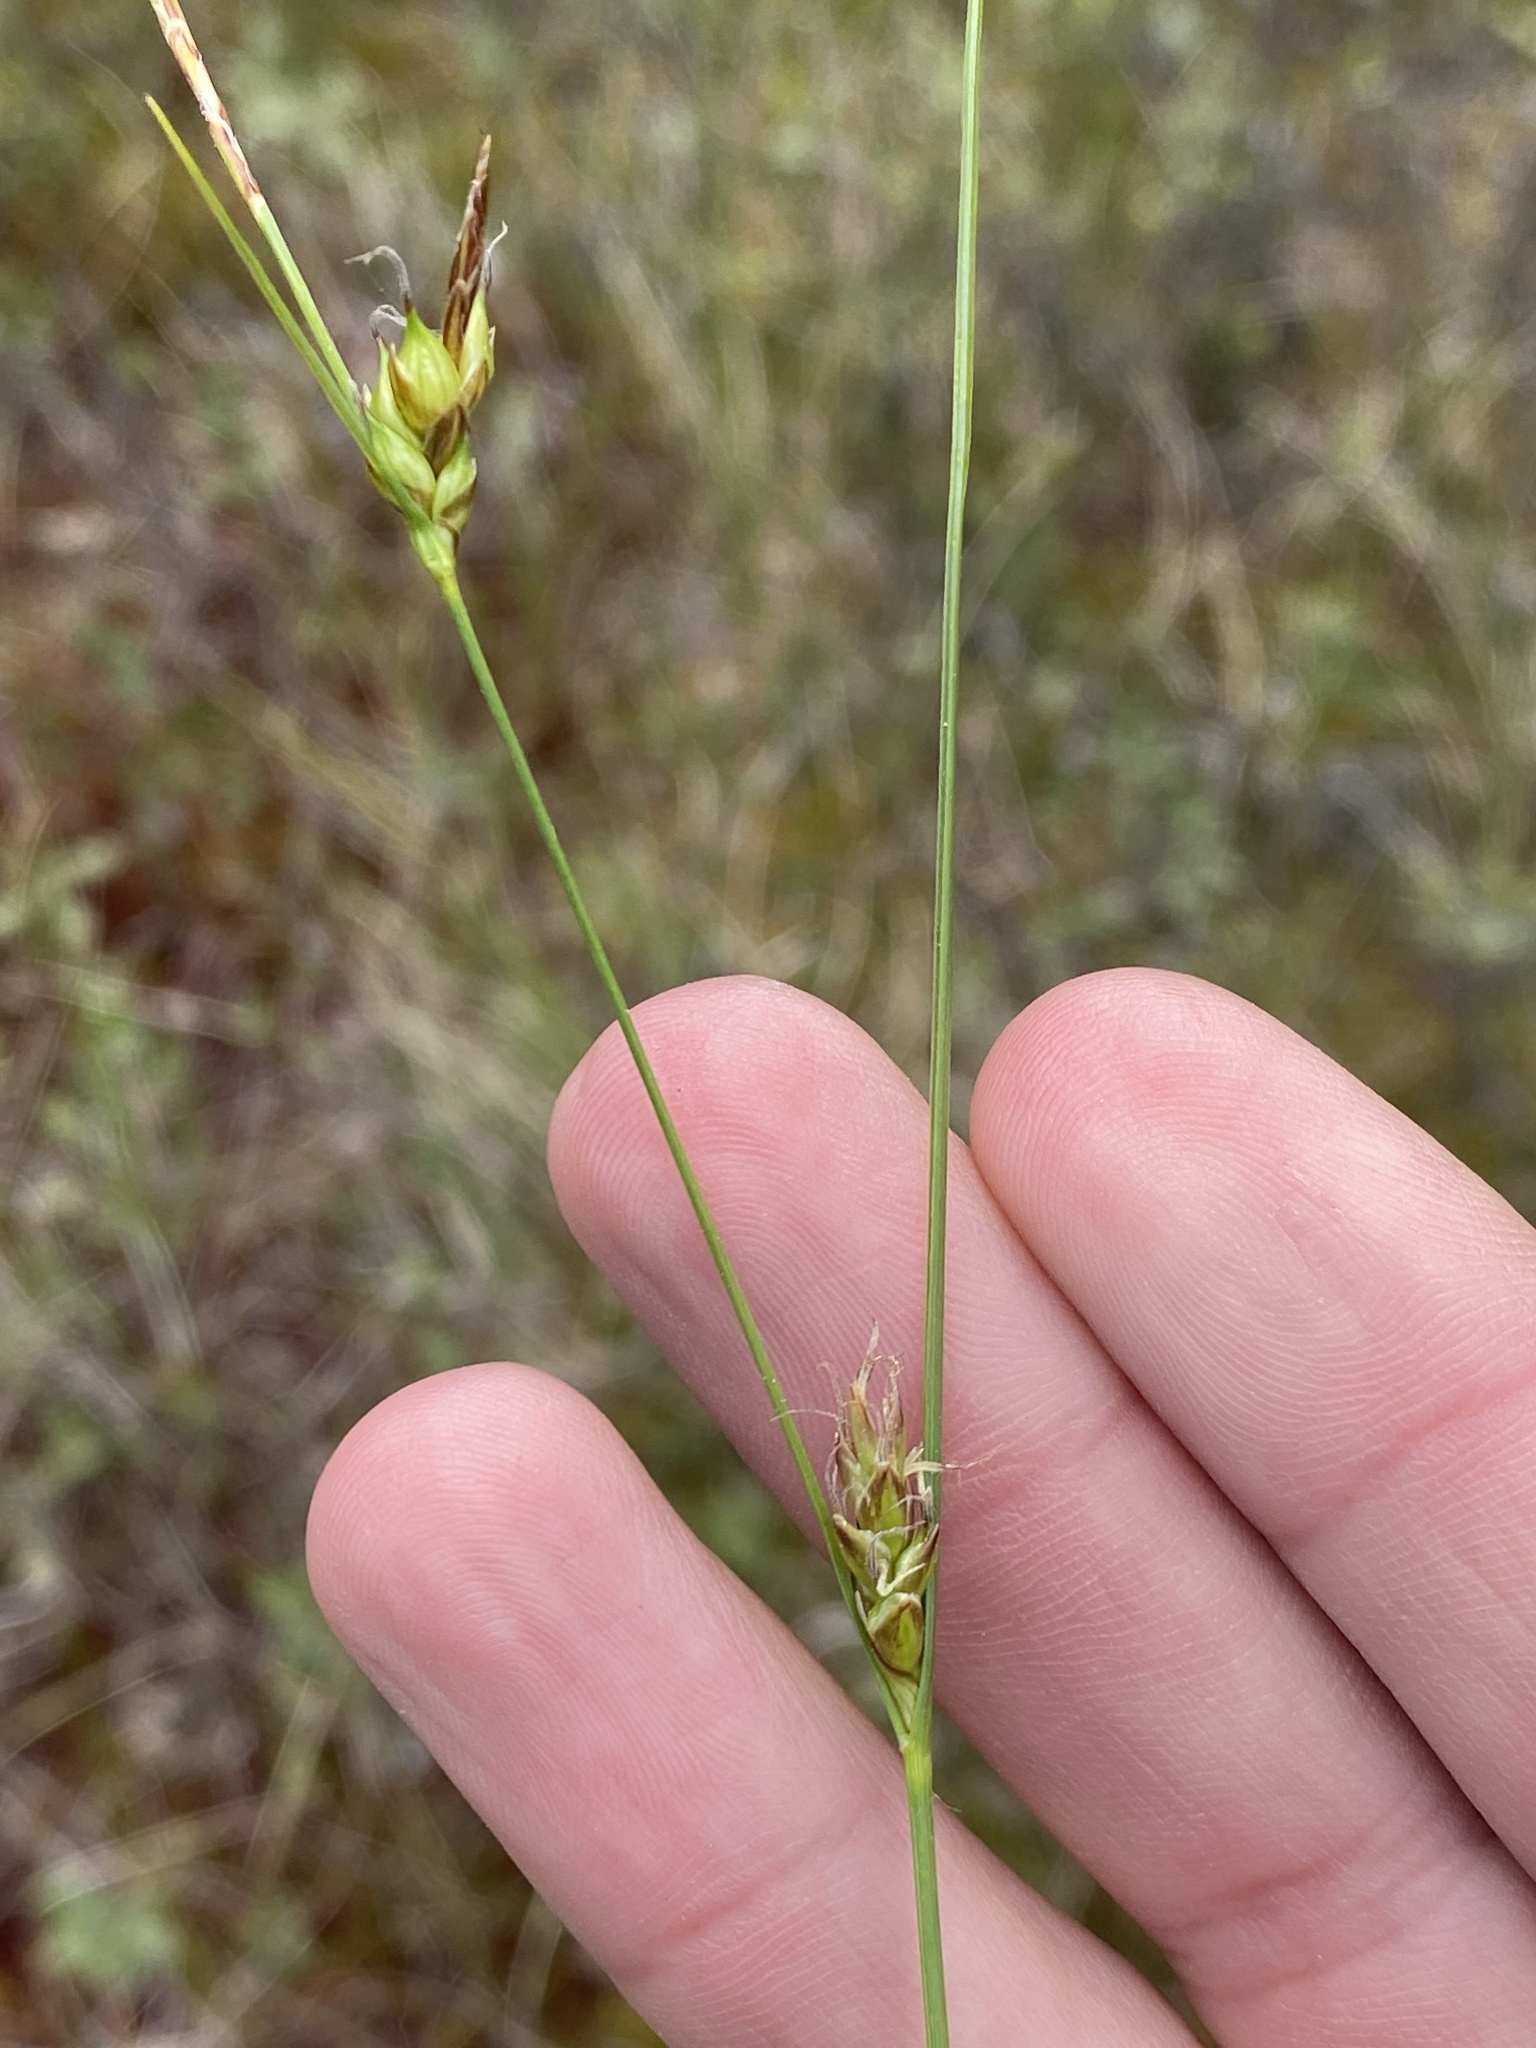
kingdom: Plantae
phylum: Tracheophyta
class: Liliopsida
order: Poales
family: Cyperaceae
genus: Carex
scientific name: Carex oligosperma
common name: Few-seed sedge
